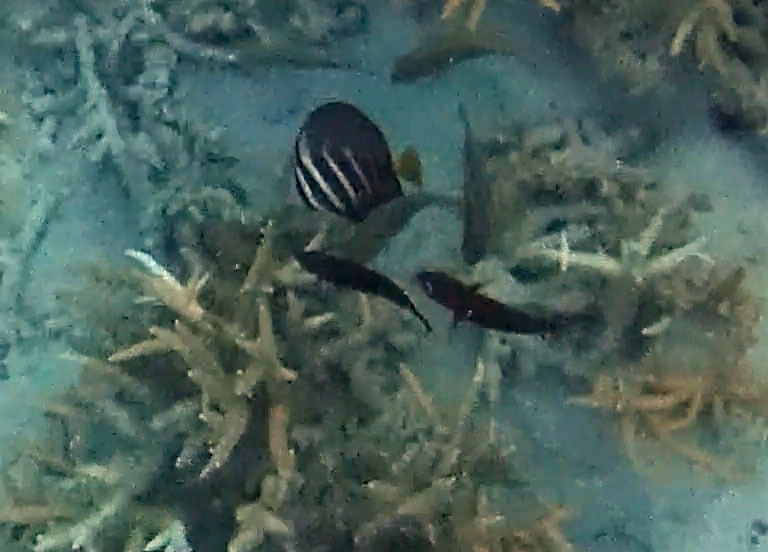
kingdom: Animalia
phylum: Chordata
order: Perciformes
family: Acanthuridae
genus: Zebrasoma
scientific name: Zebrasoma veliferum
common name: Sailfin surgeonfish
